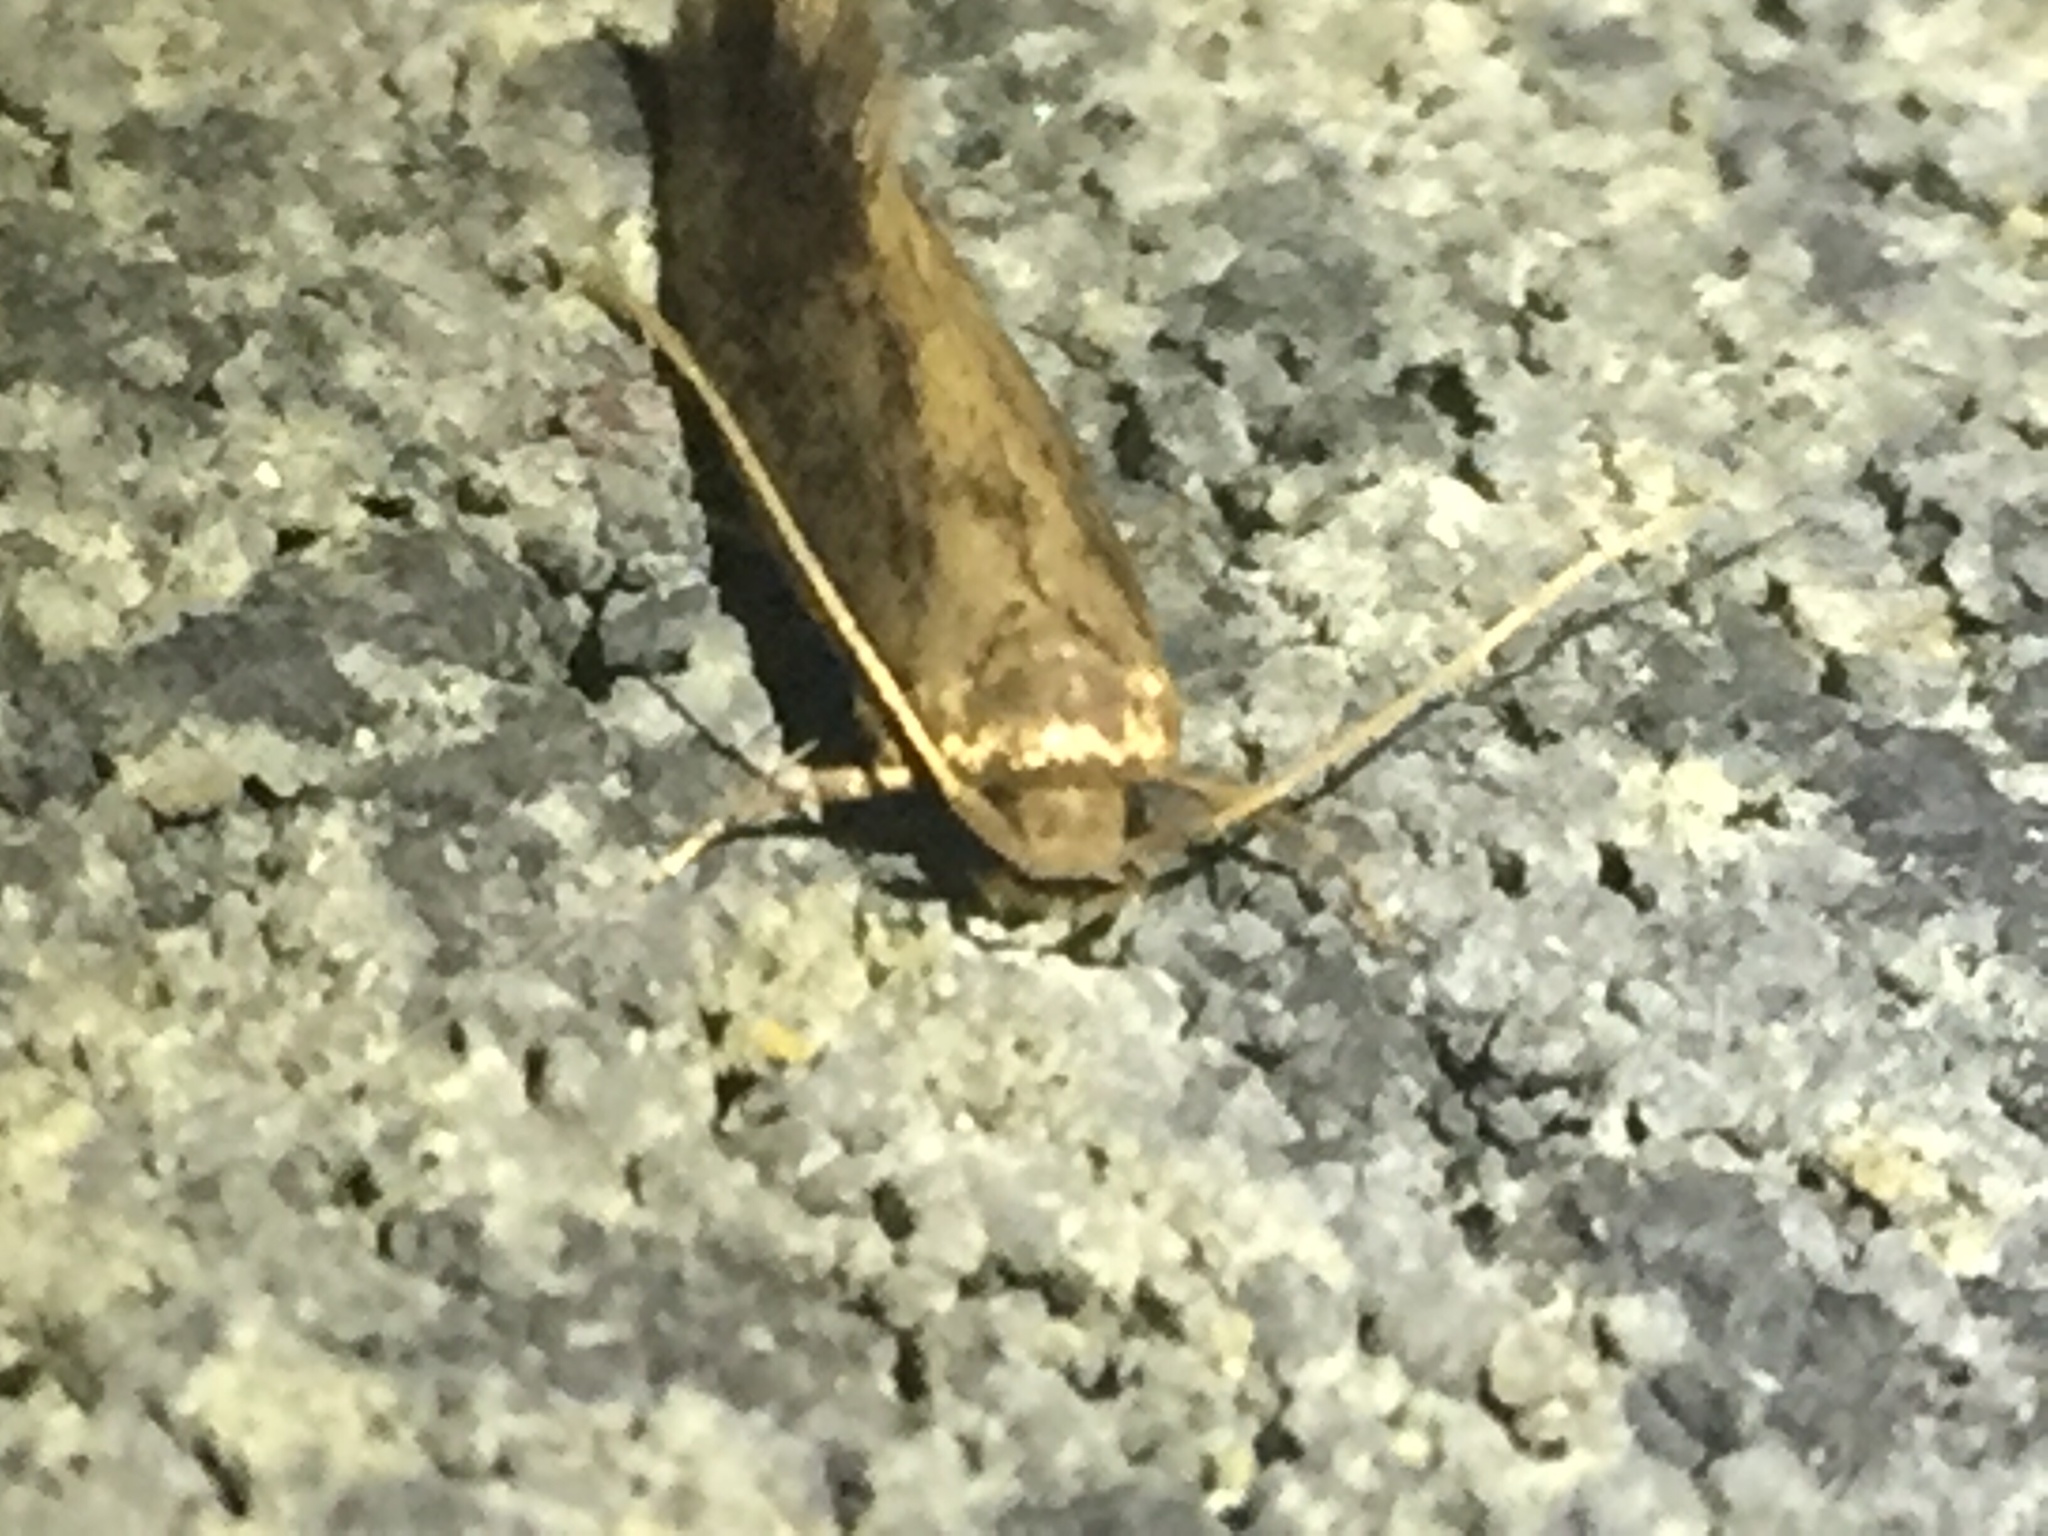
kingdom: Animalia
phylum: Arthropoda
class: Insecta
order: Lepidoptera
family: Tineidae
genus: Opogona
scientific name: Opogona omoscopa
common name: Moth
